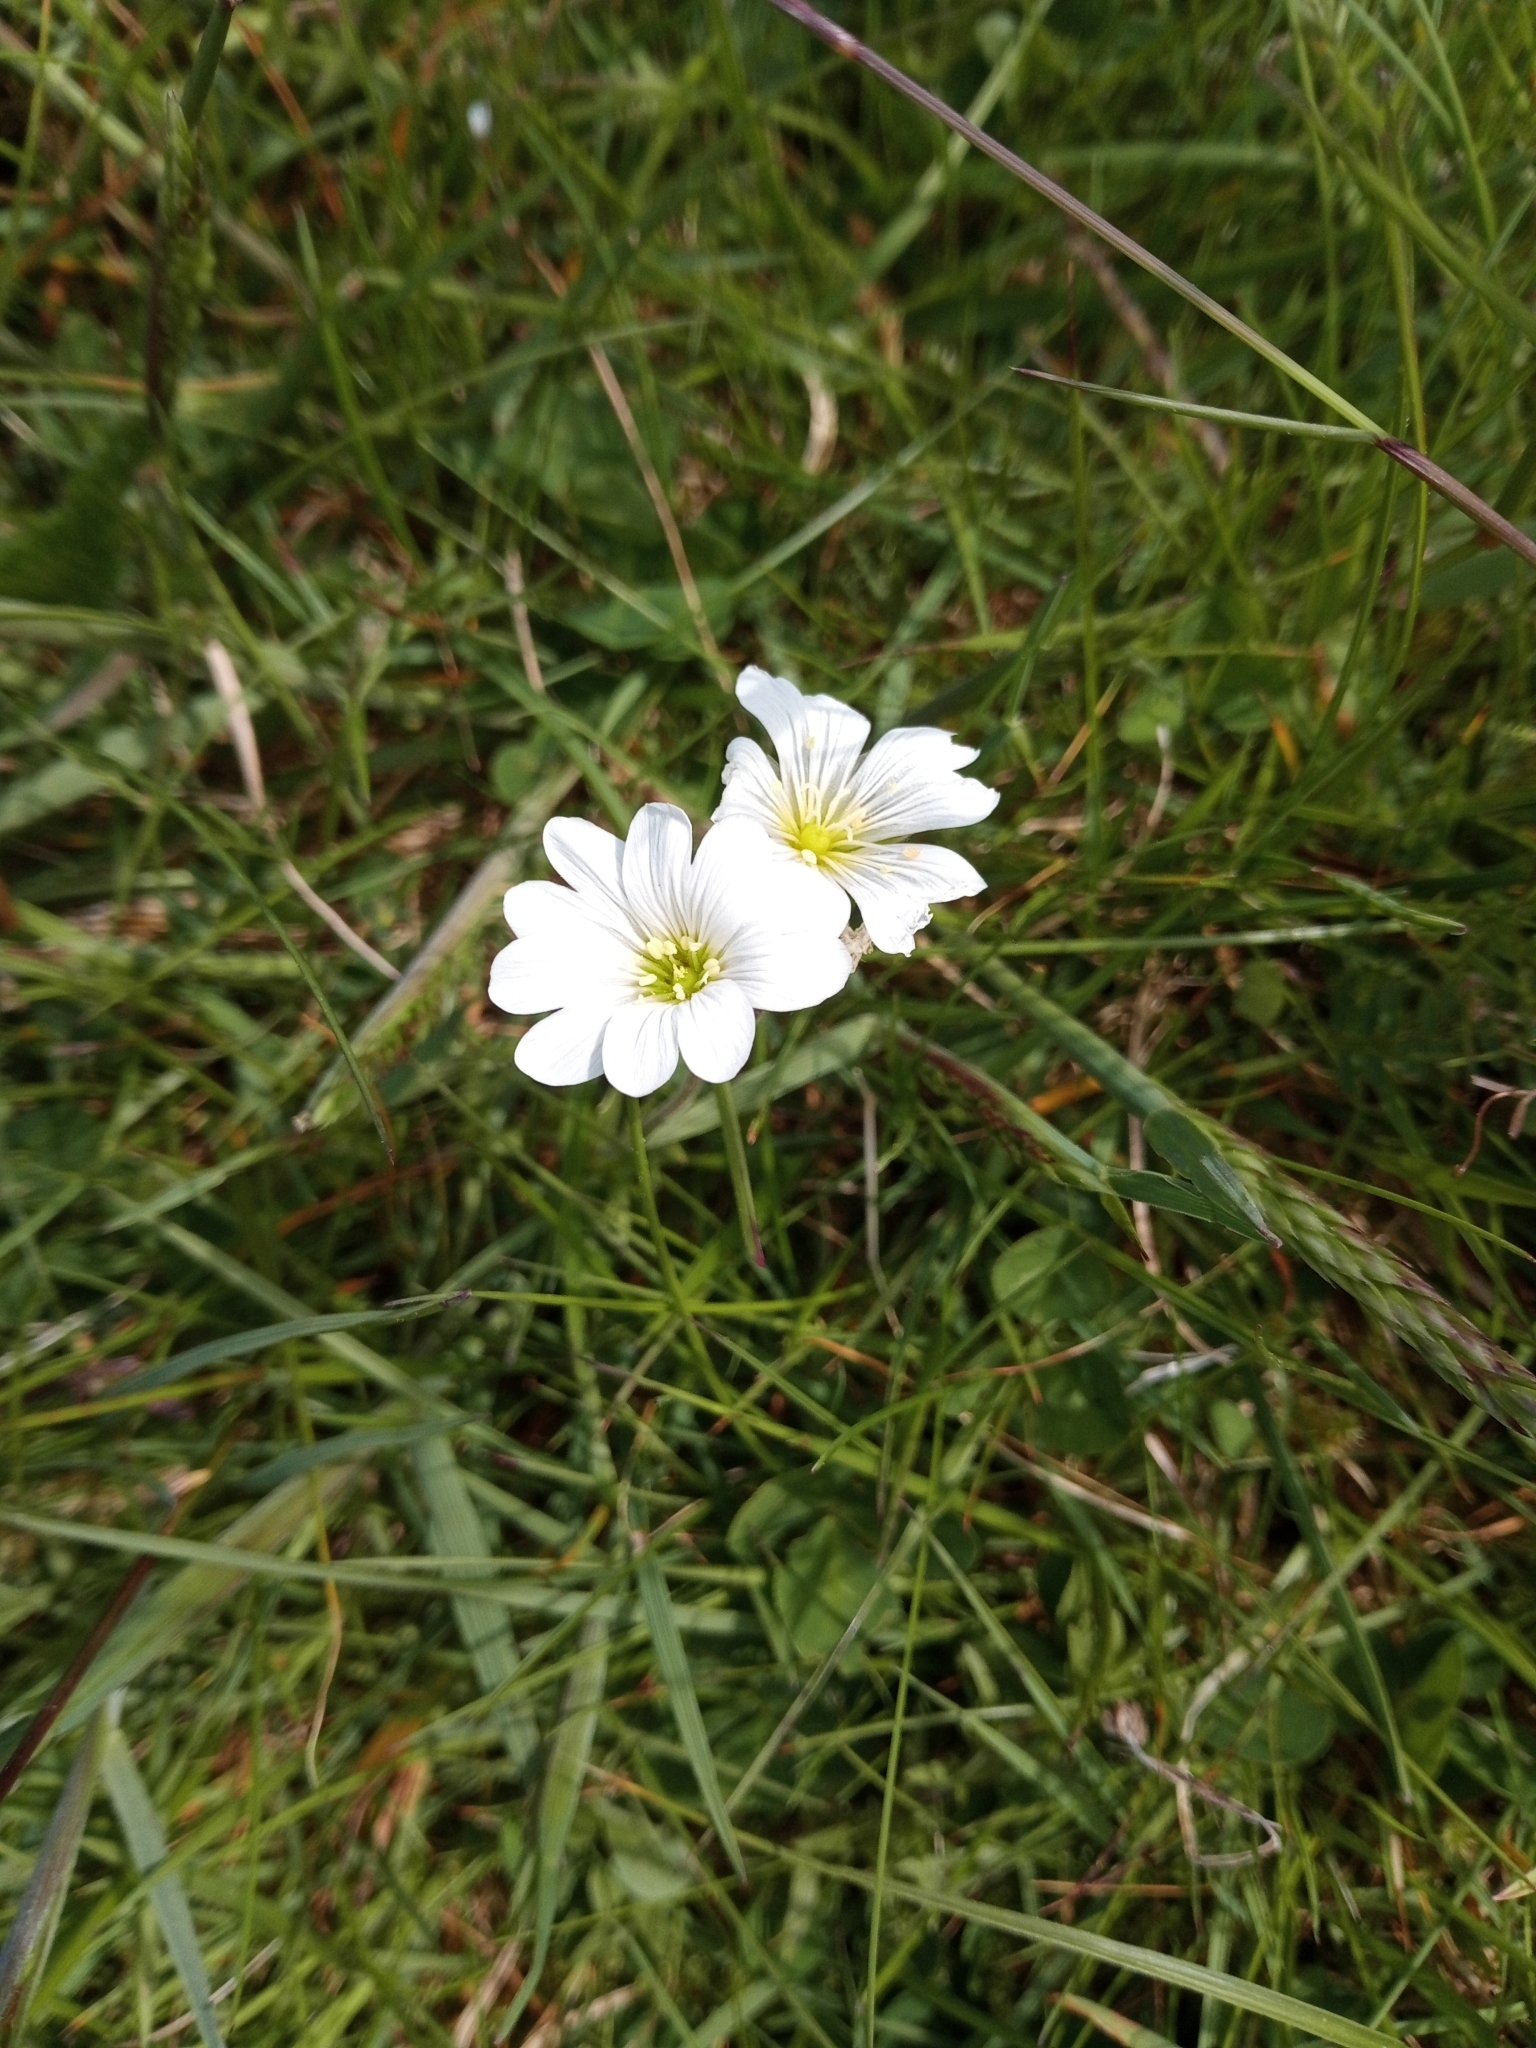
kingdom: Plantae
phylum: Tracheophyta
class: Magnoliopsida
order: Caryophyllales
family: Caryophyllaceae
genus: Cerastium
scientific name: Cerastium arvense
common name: Field mouse-ear
